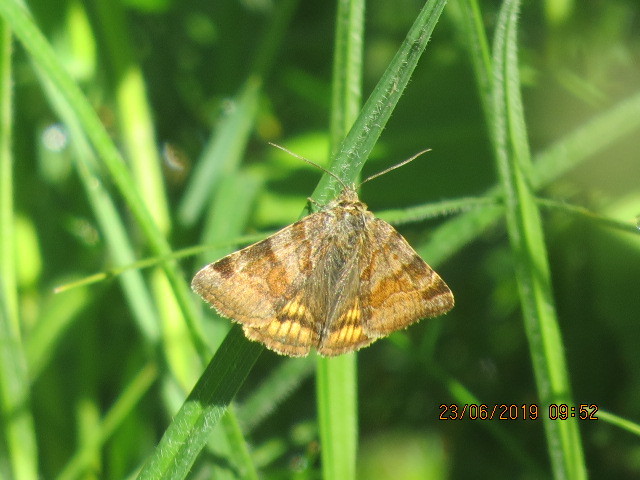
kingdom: Animalia
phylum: Arthropoda
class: Insecta
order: Lepidoptera
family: Erebidae
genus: Euclidia
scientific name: Euclidia glyphica
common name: Burnet companion
